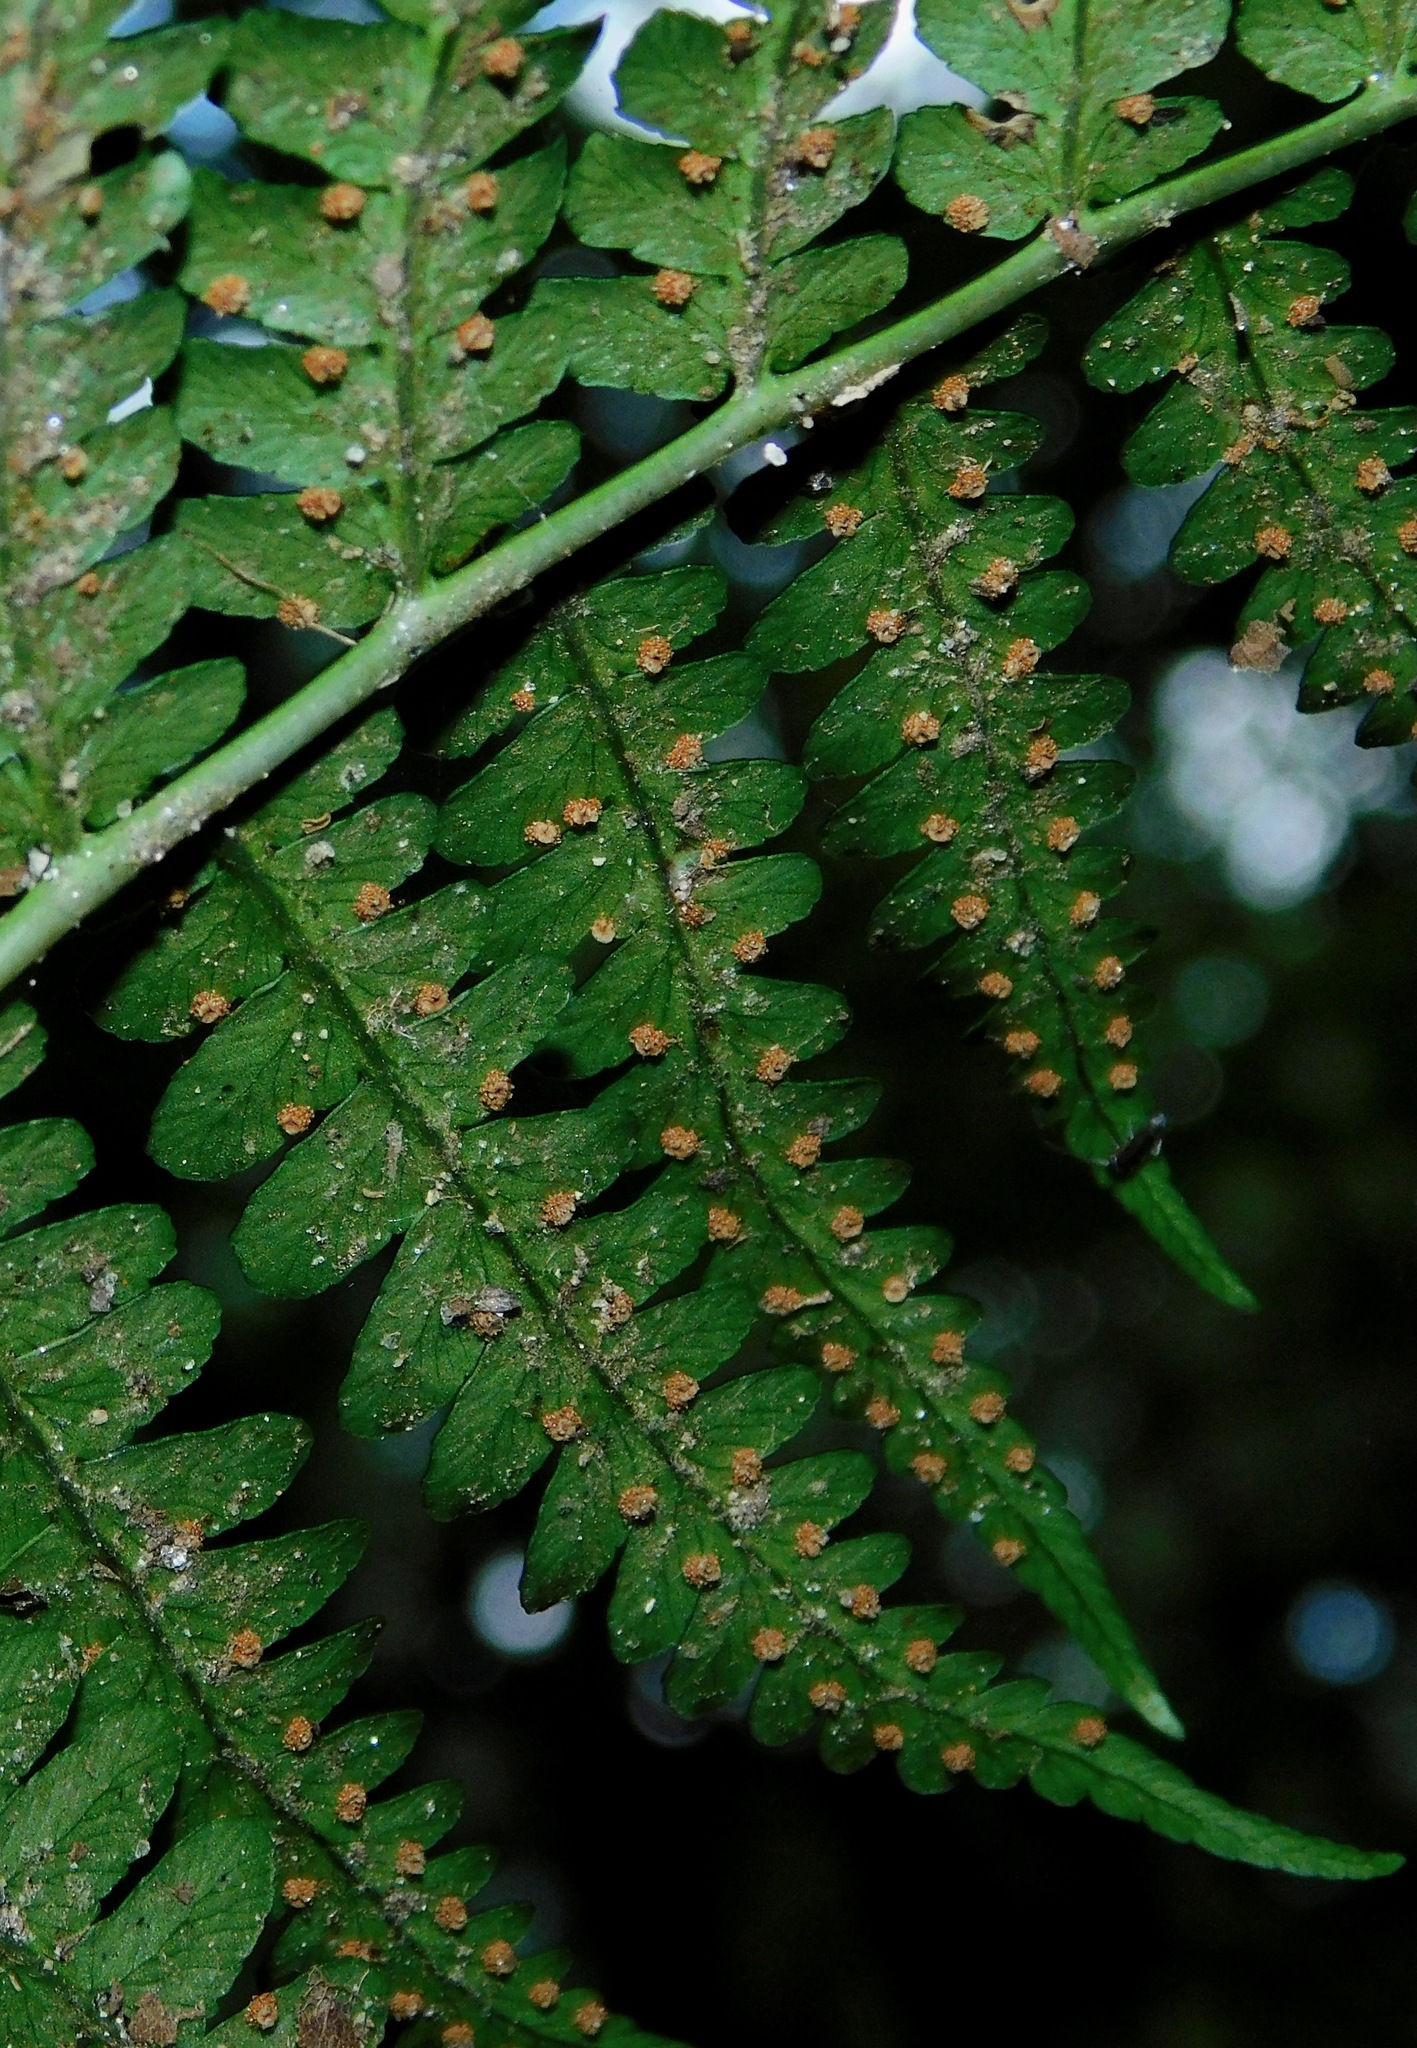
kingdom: Plantae
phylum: Tracheophyta
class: Polypodiopsida
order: Polypodiales
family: Dryopteridaceae
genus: Dryopteris
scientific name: Dryopteris marginalis
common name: Marginal wood fern
